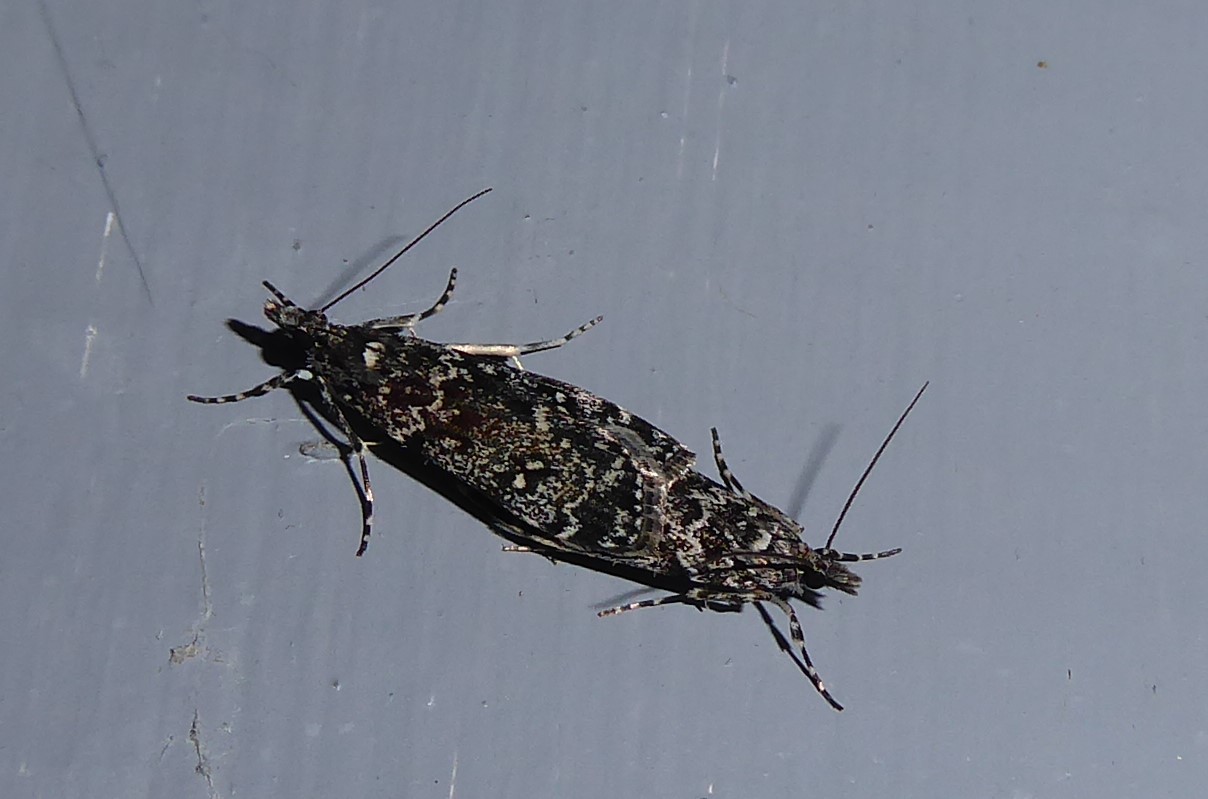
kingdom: Animalia
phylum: Arthropoda
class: Insecta
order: Lepidoptera
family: Crambidae
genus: Eudonia
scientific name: Eudonia philerga
